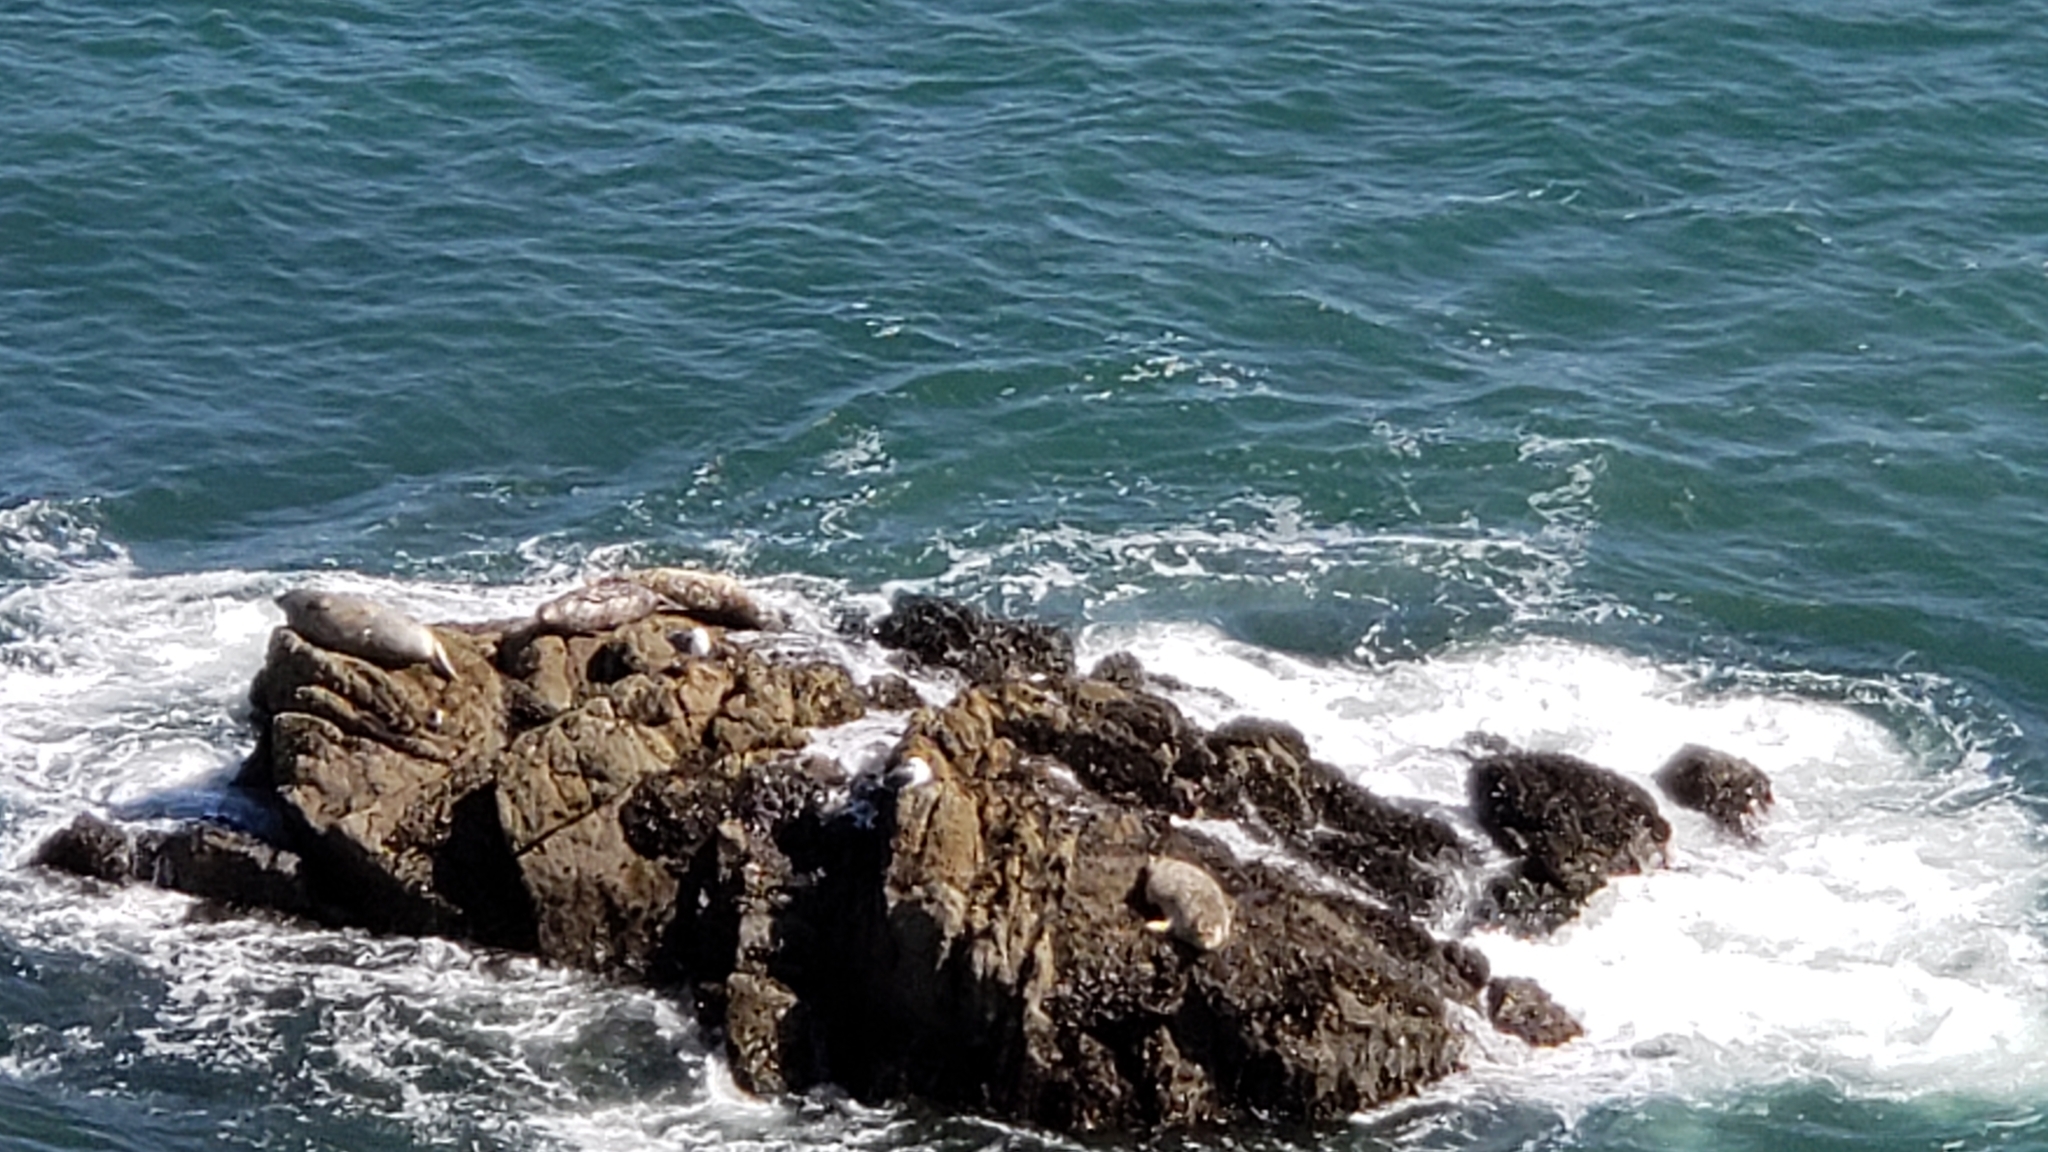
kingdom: Animalia
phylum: Chordata
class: Mammalia
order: Carnivora
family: Phocidae
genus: Phoca
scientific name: Phoca vitulina
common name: Harbor seal
